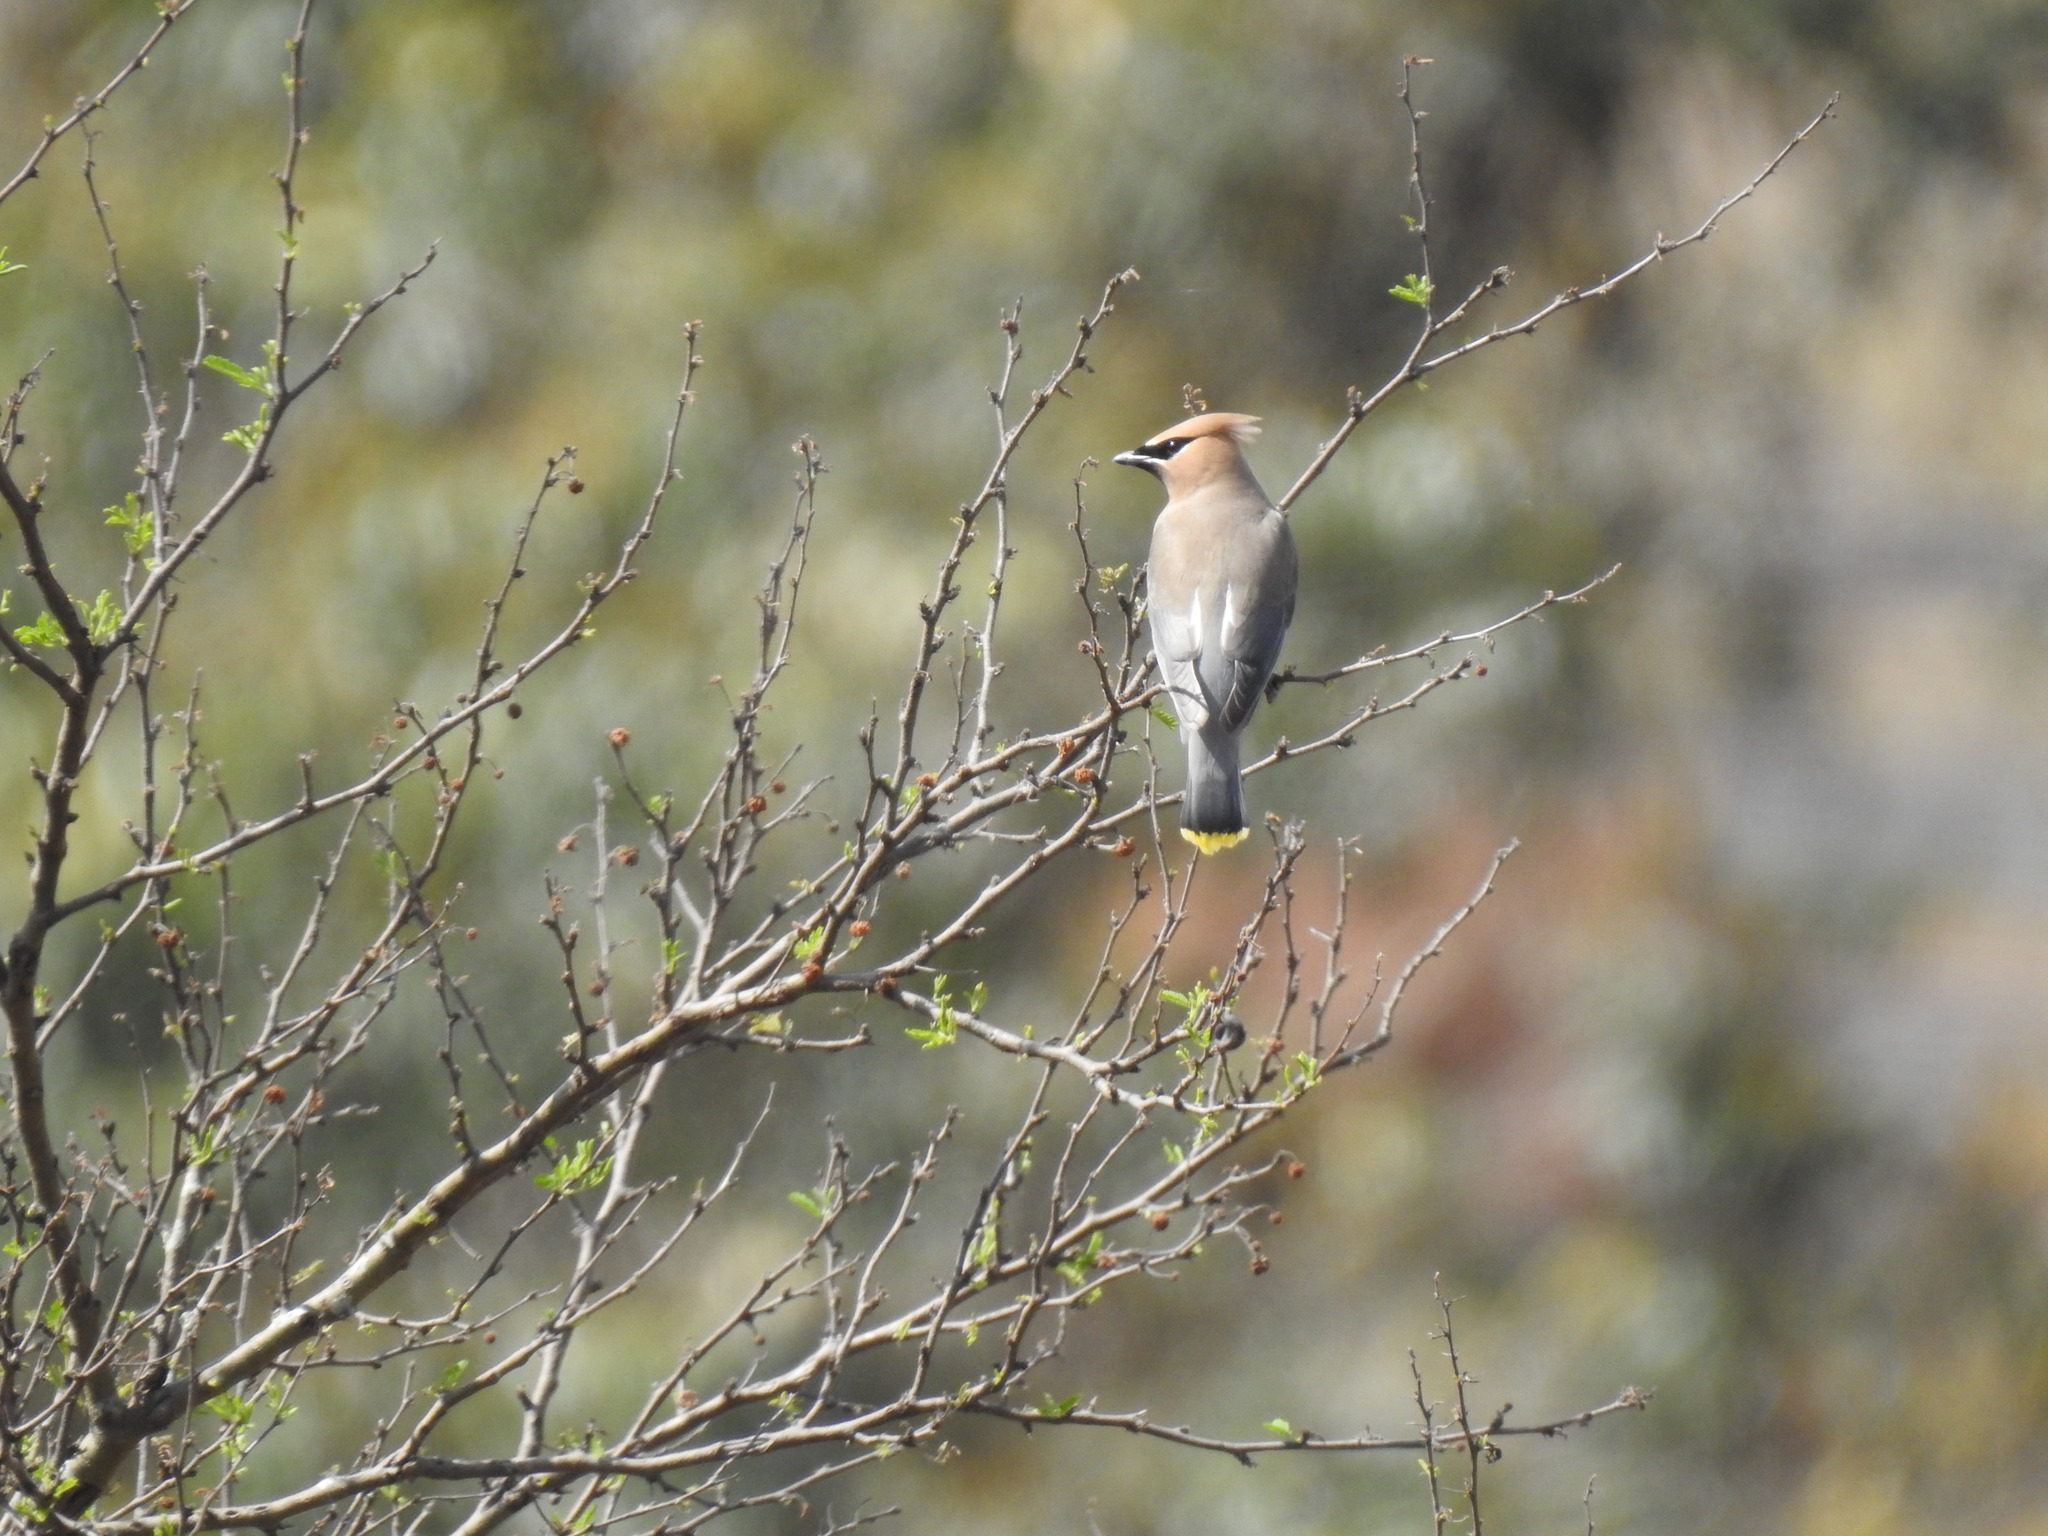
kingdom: Animalia
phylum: Chordata
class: Aves
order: Passeriformes
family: Bombycillidae
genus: Bombycilla
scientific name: Bombycilla cedrorum
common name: Cedar waxwing
